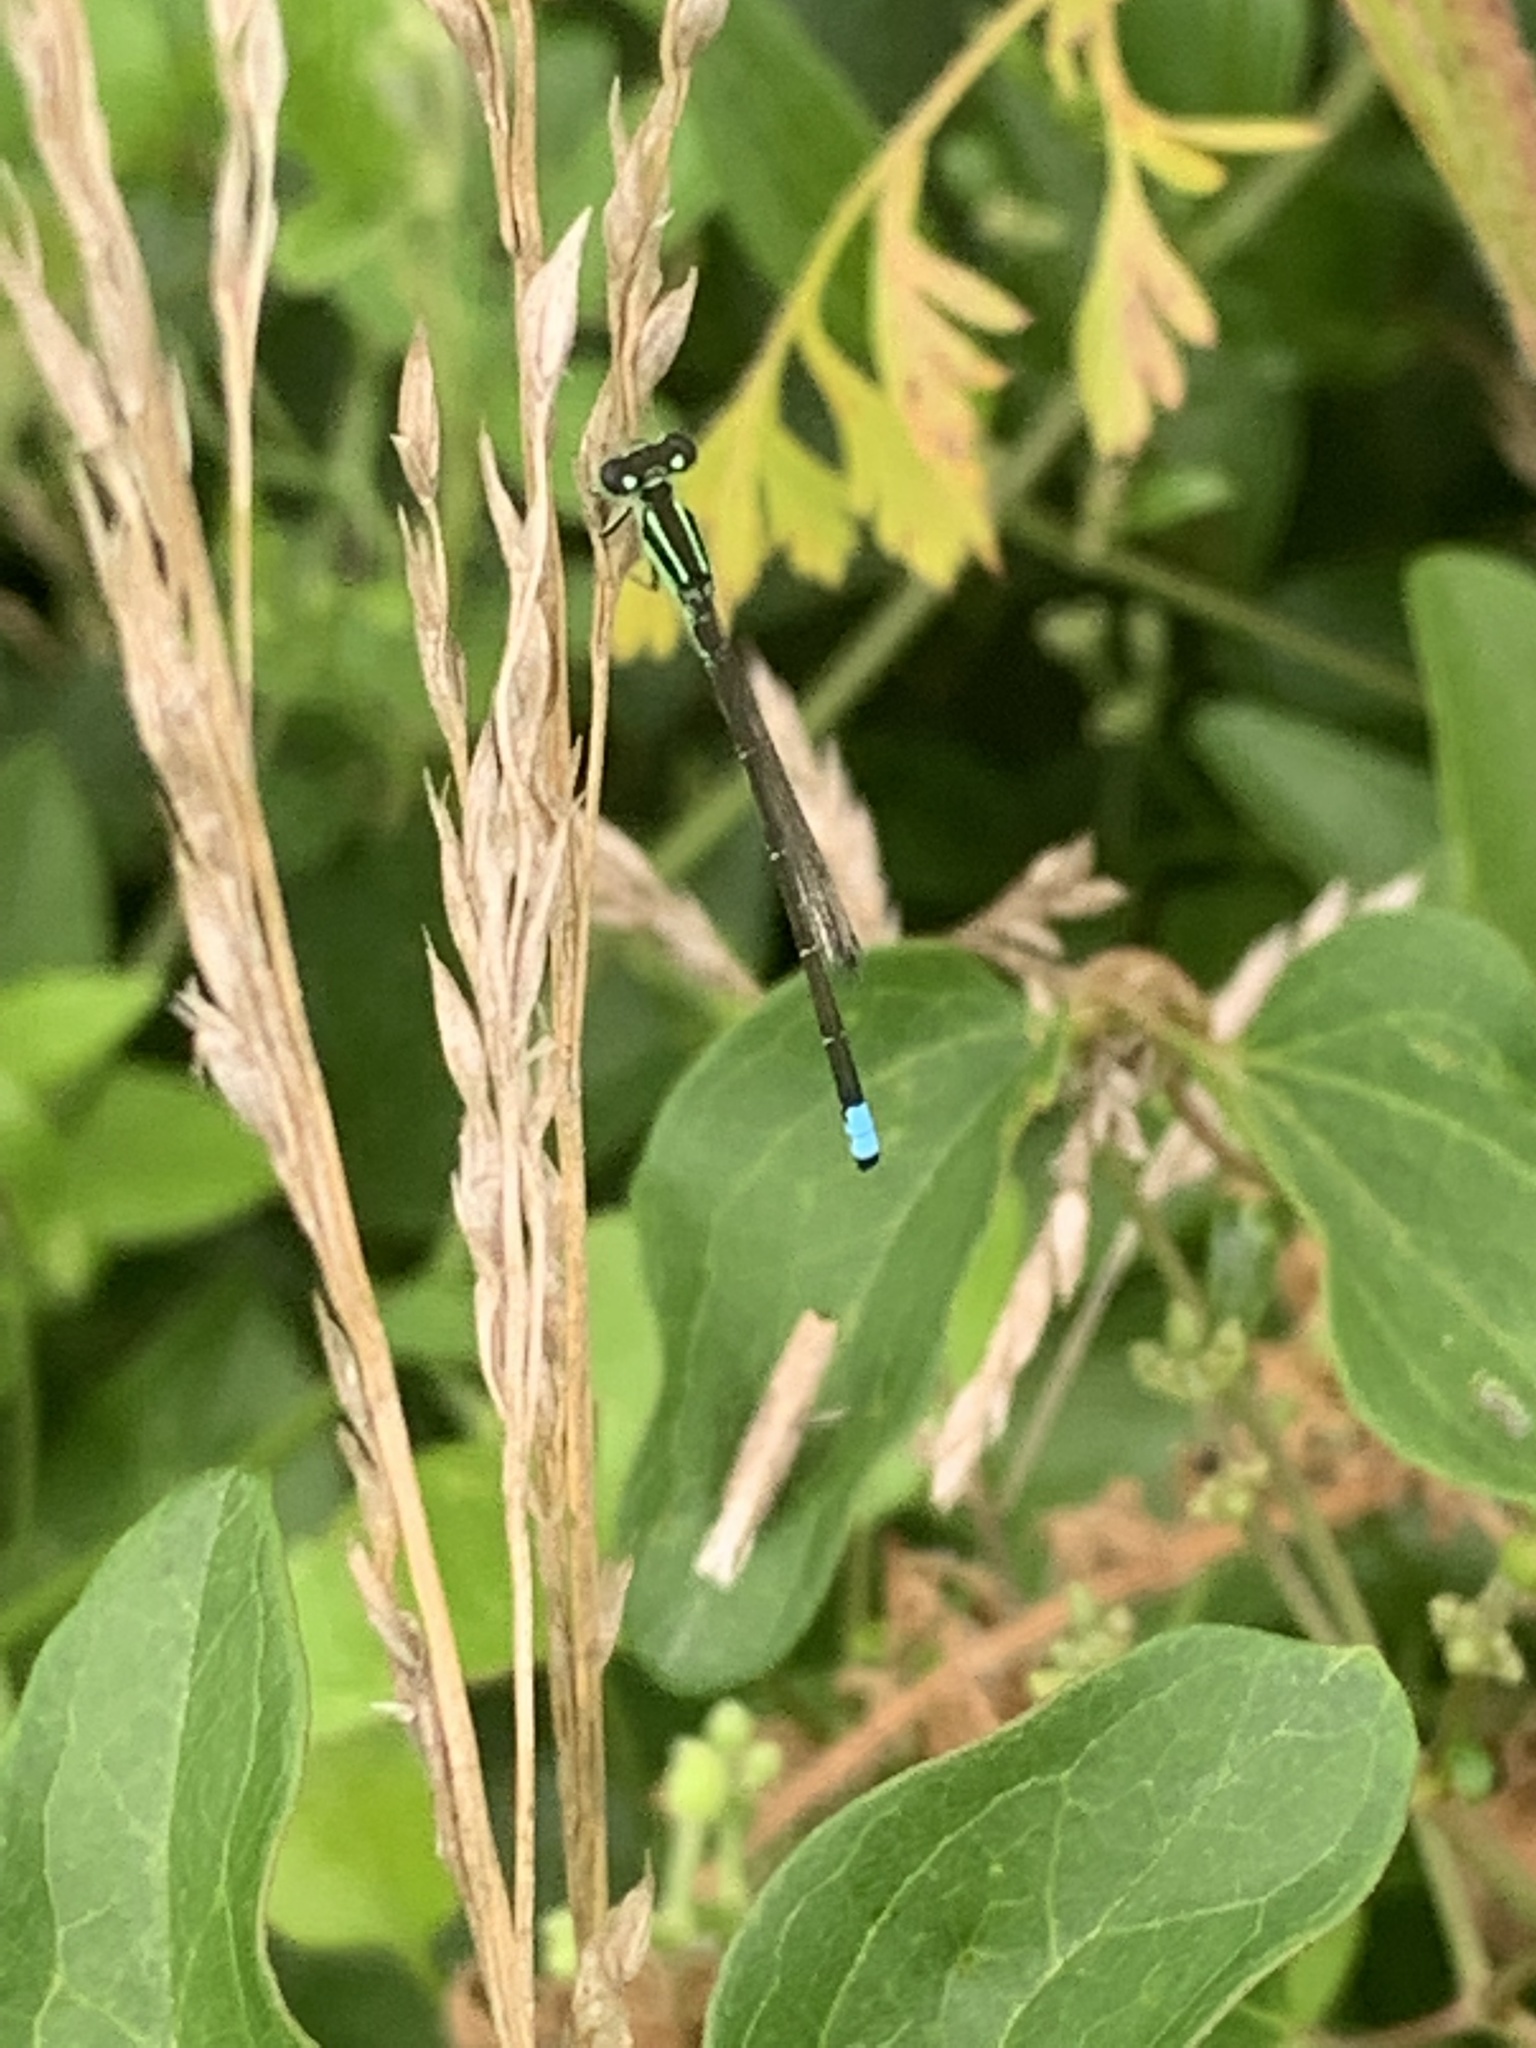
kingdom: Animalia
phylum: Arthropoda
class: Insecta
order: Odonata
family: Coenagrionidae
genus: Ischnura
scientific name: Ischnura verticalis
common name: Eastern forktail
